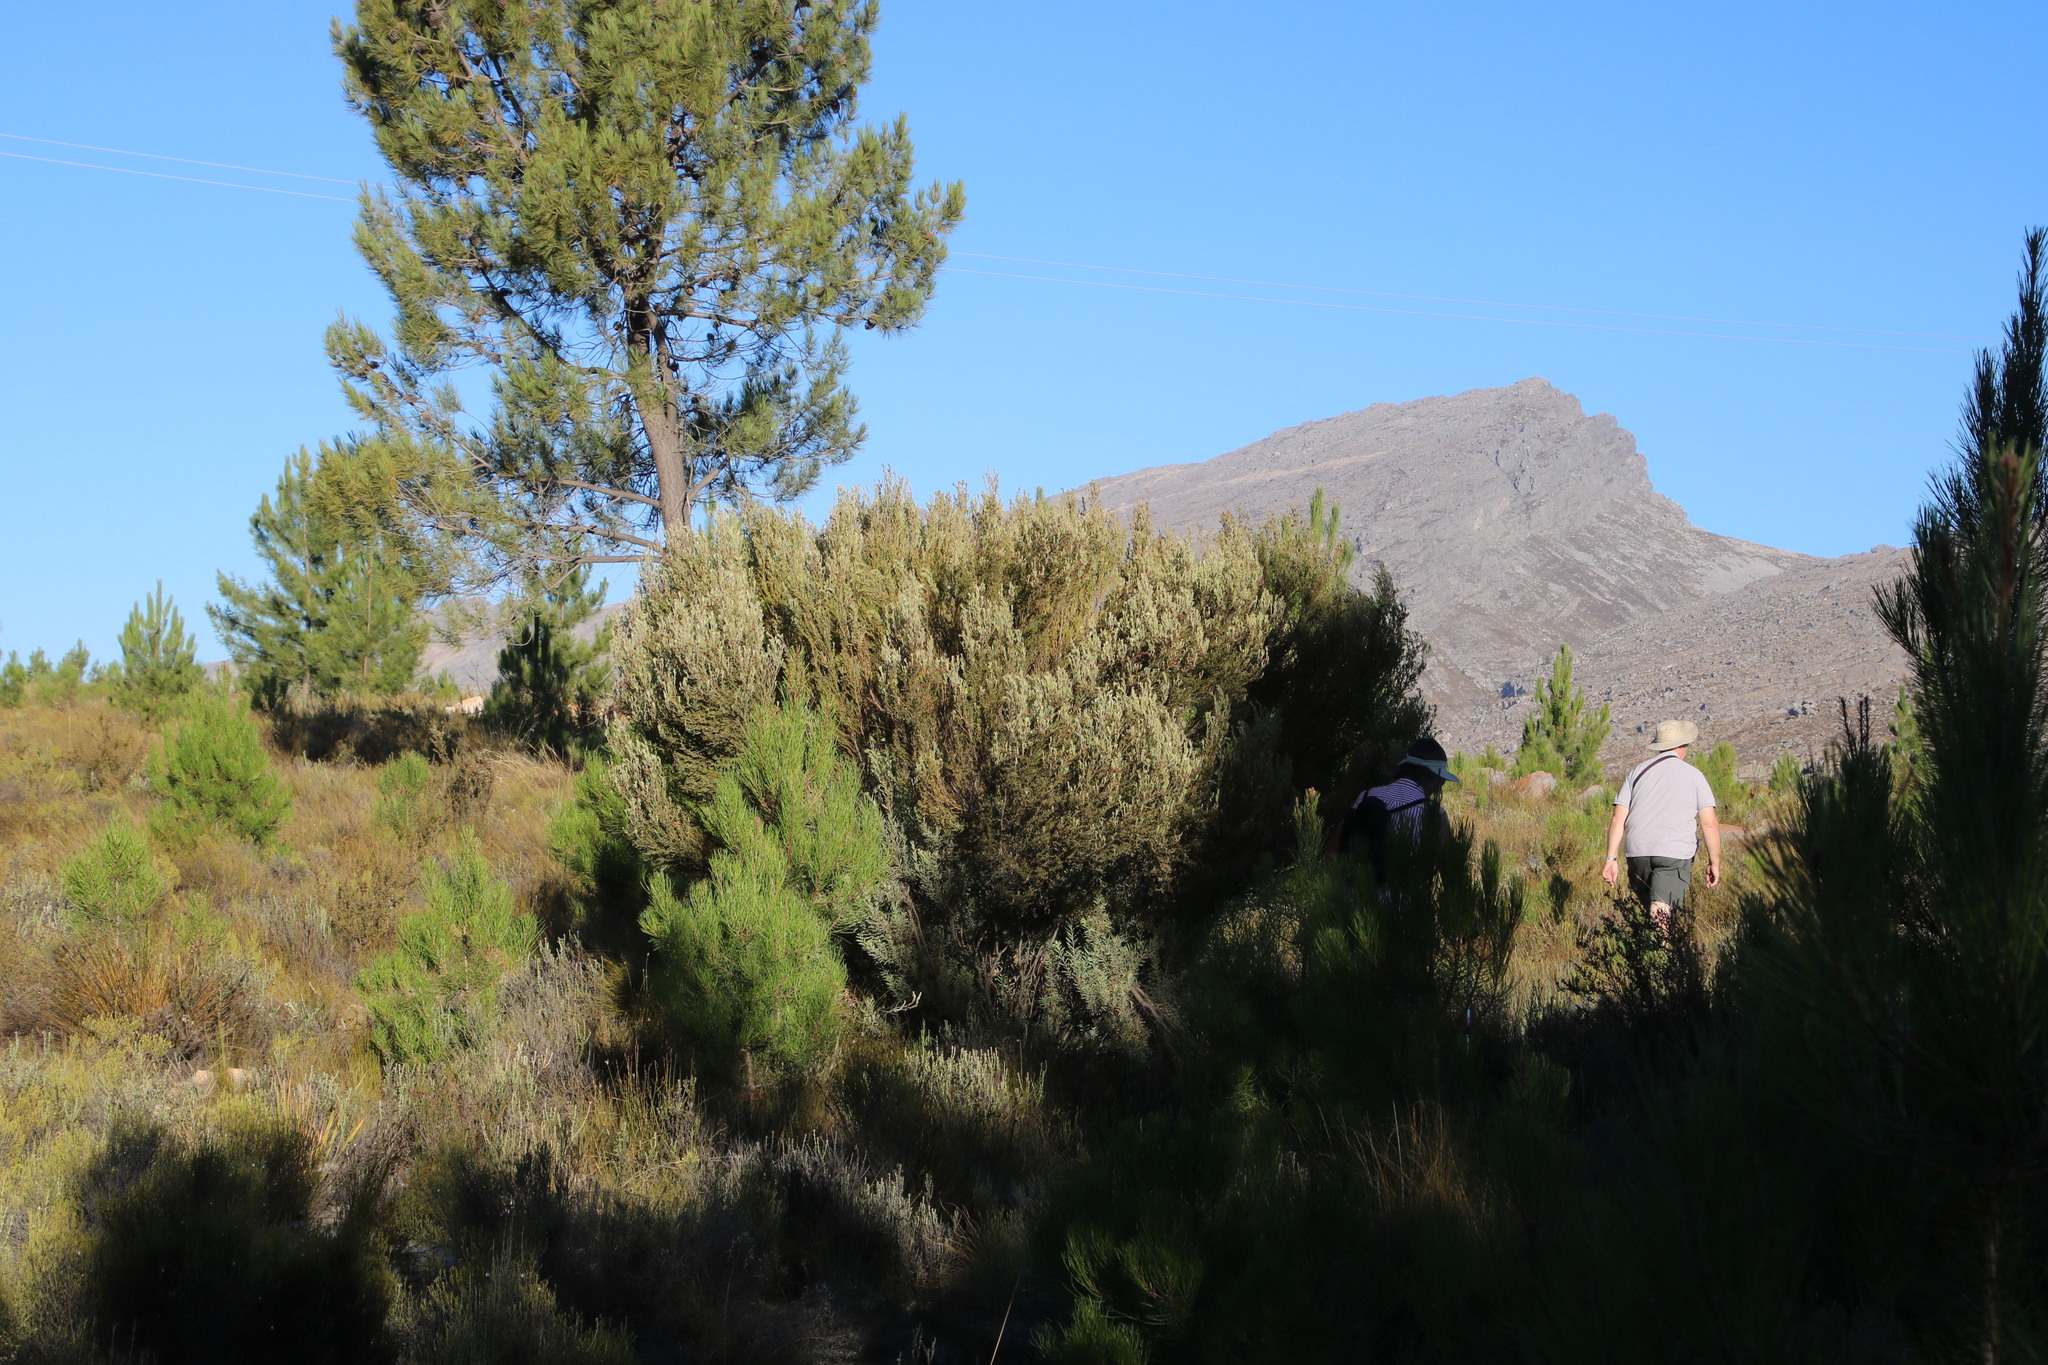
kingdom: Plantae
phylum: Tracheophyta
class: Magnoliopsida
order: Proteales
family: Proteaceae
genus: Leucadendron
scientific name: Leucadendron rubrum
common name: Spinning top
